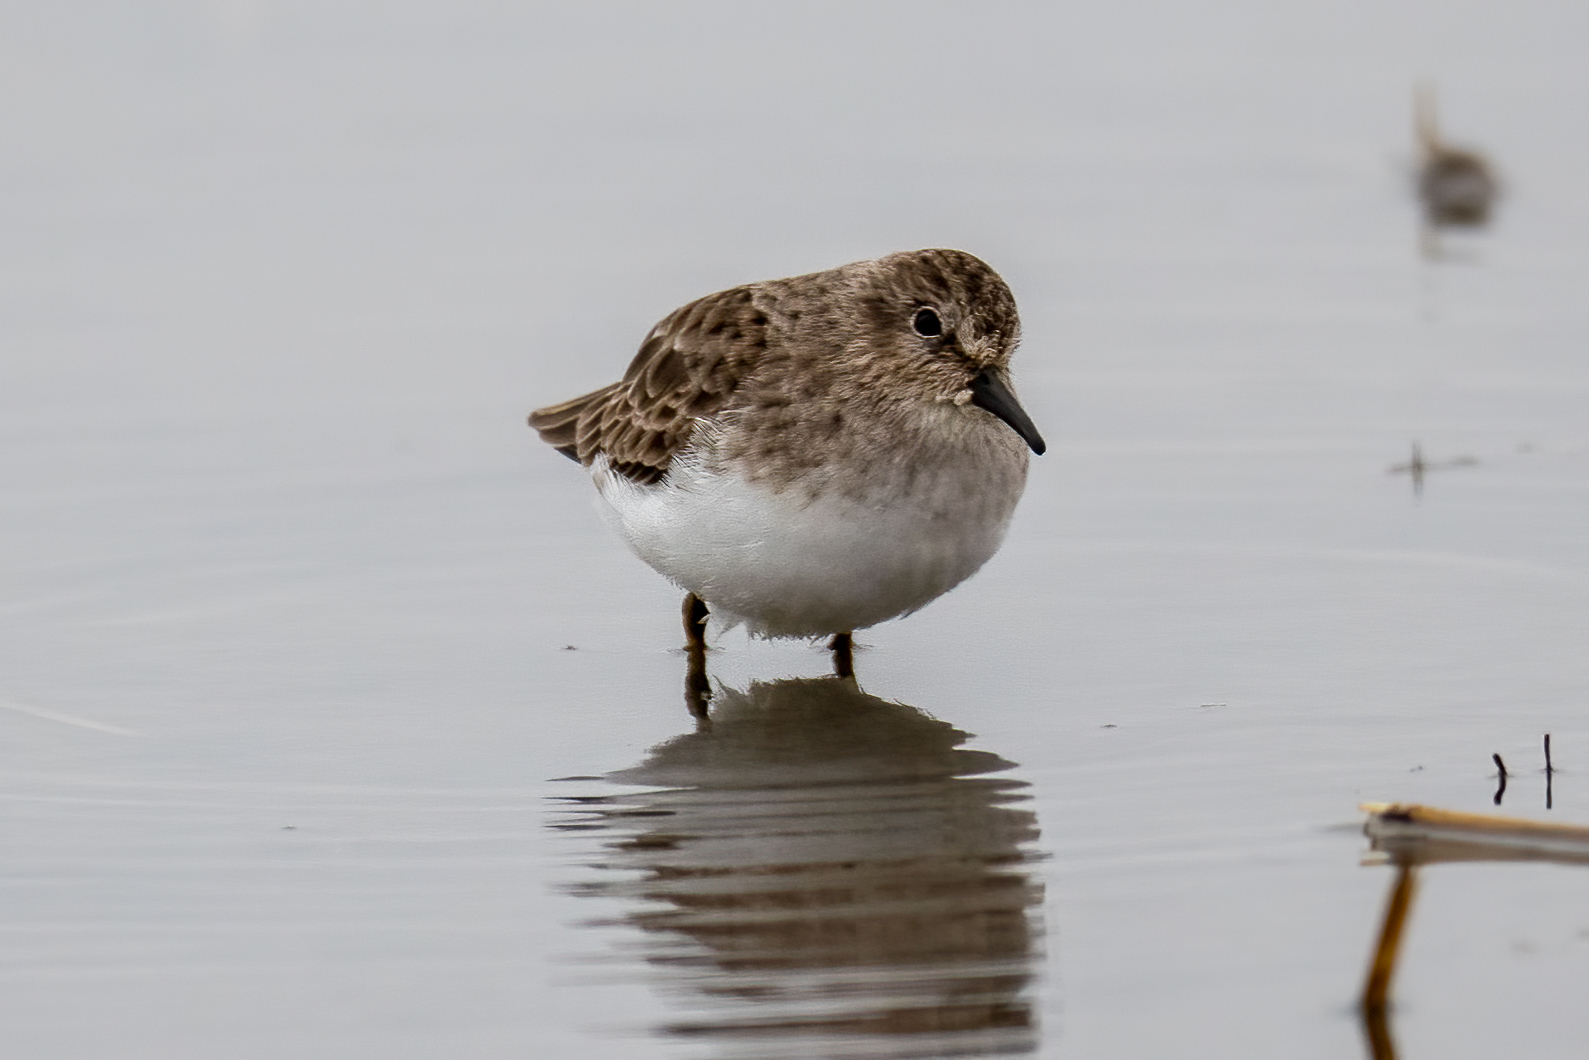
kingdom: Animalia
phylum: Chordata
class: Aves
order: Charadriiformes
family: Scolopacidae
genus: Calidris
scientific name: Calidris minutilla
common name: Least sandpiper
